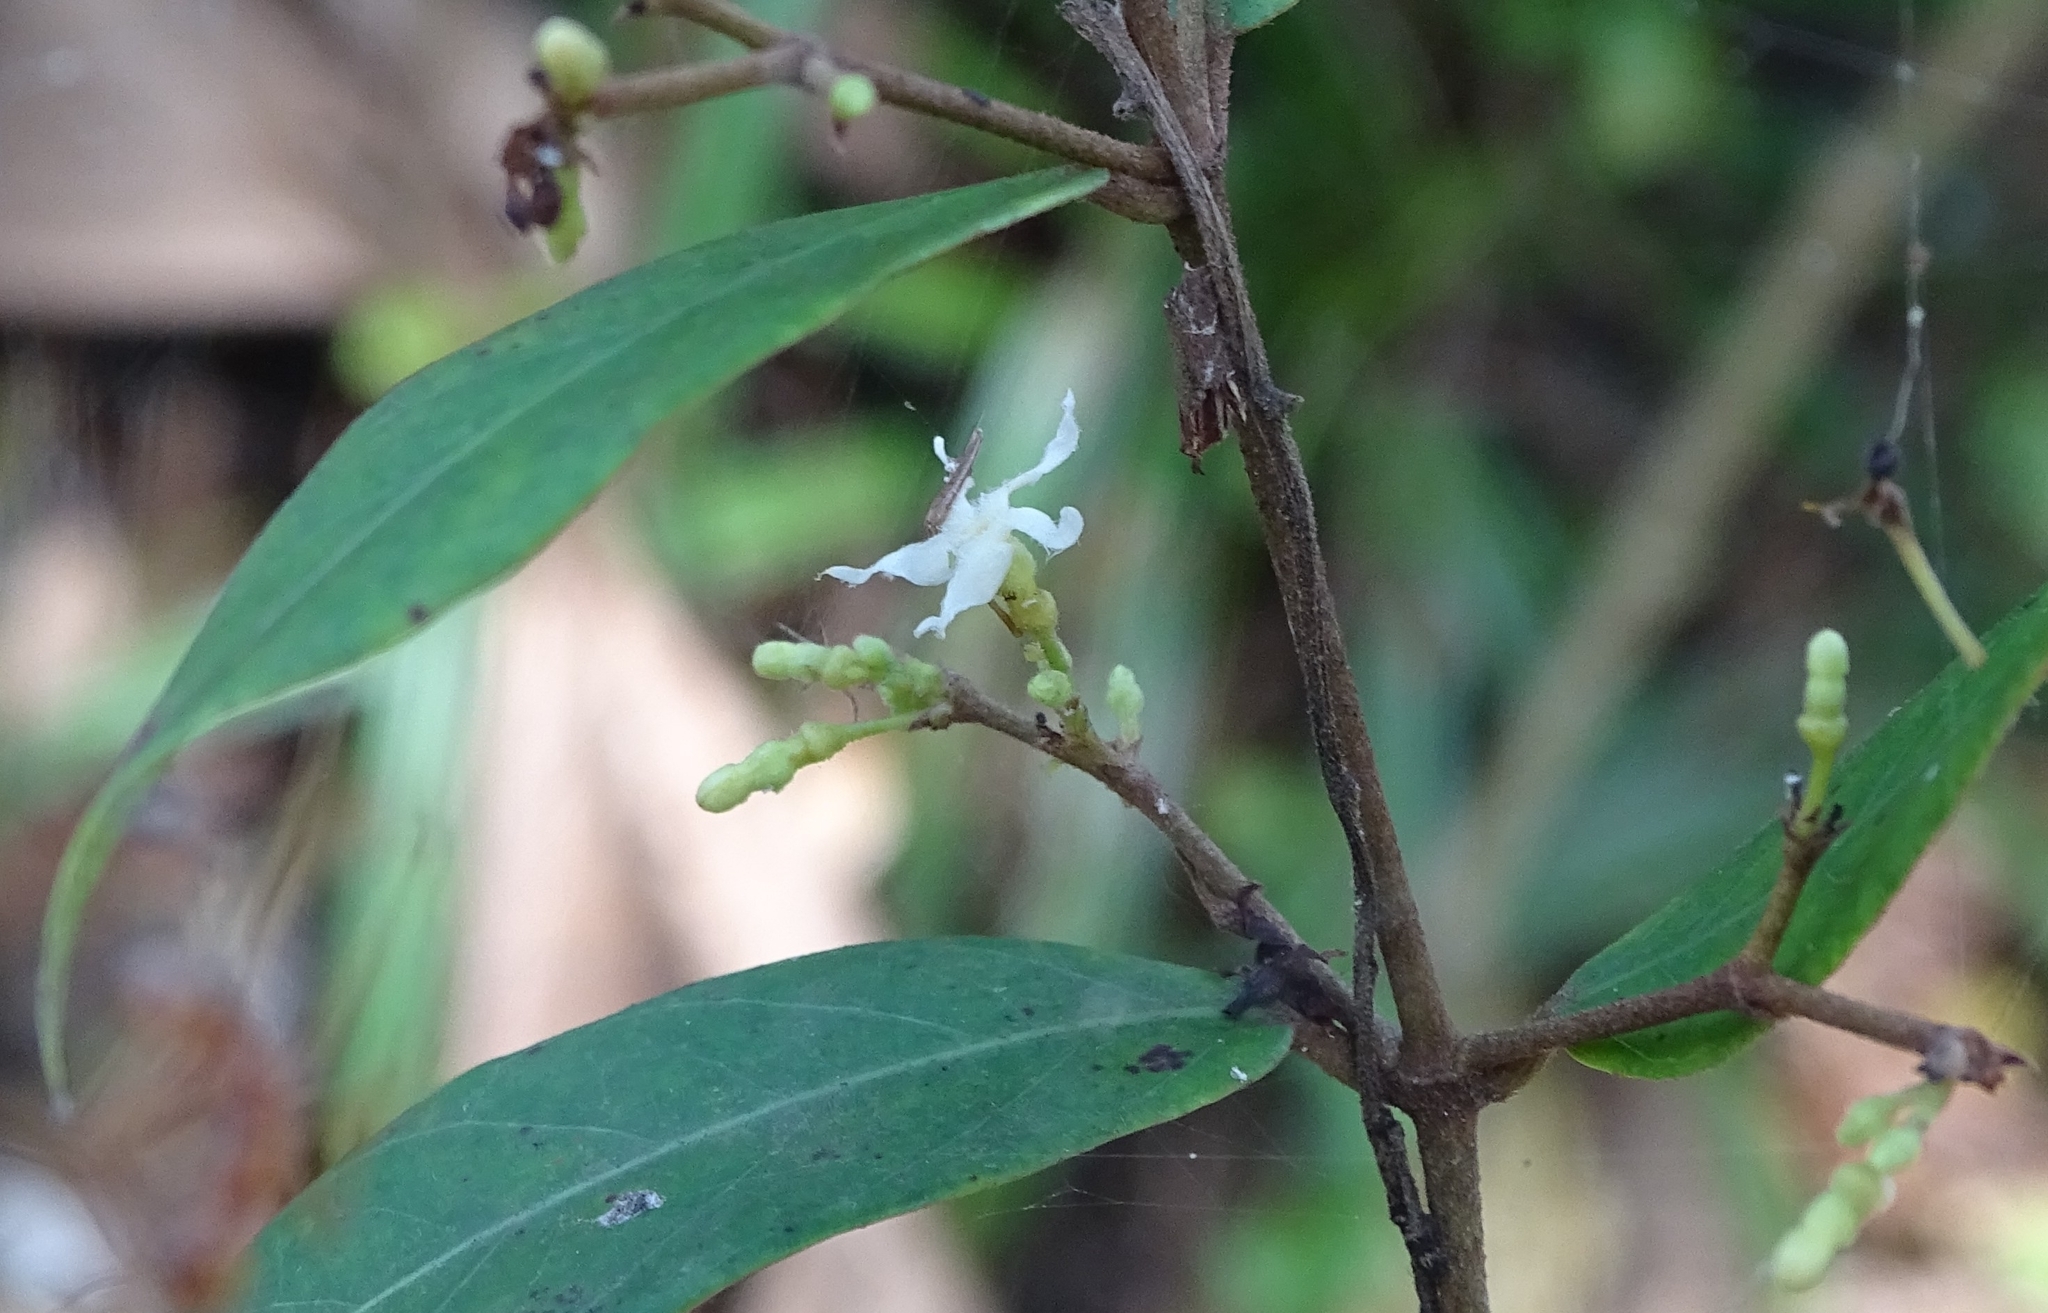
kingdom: Plantae
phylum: Tracheophyta
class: Magnoliopsida
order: Gentianales
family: Apocynaceae
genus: Ichnocarpus
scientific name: Ichnocarpus frutescens
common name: Ichnocarpus
